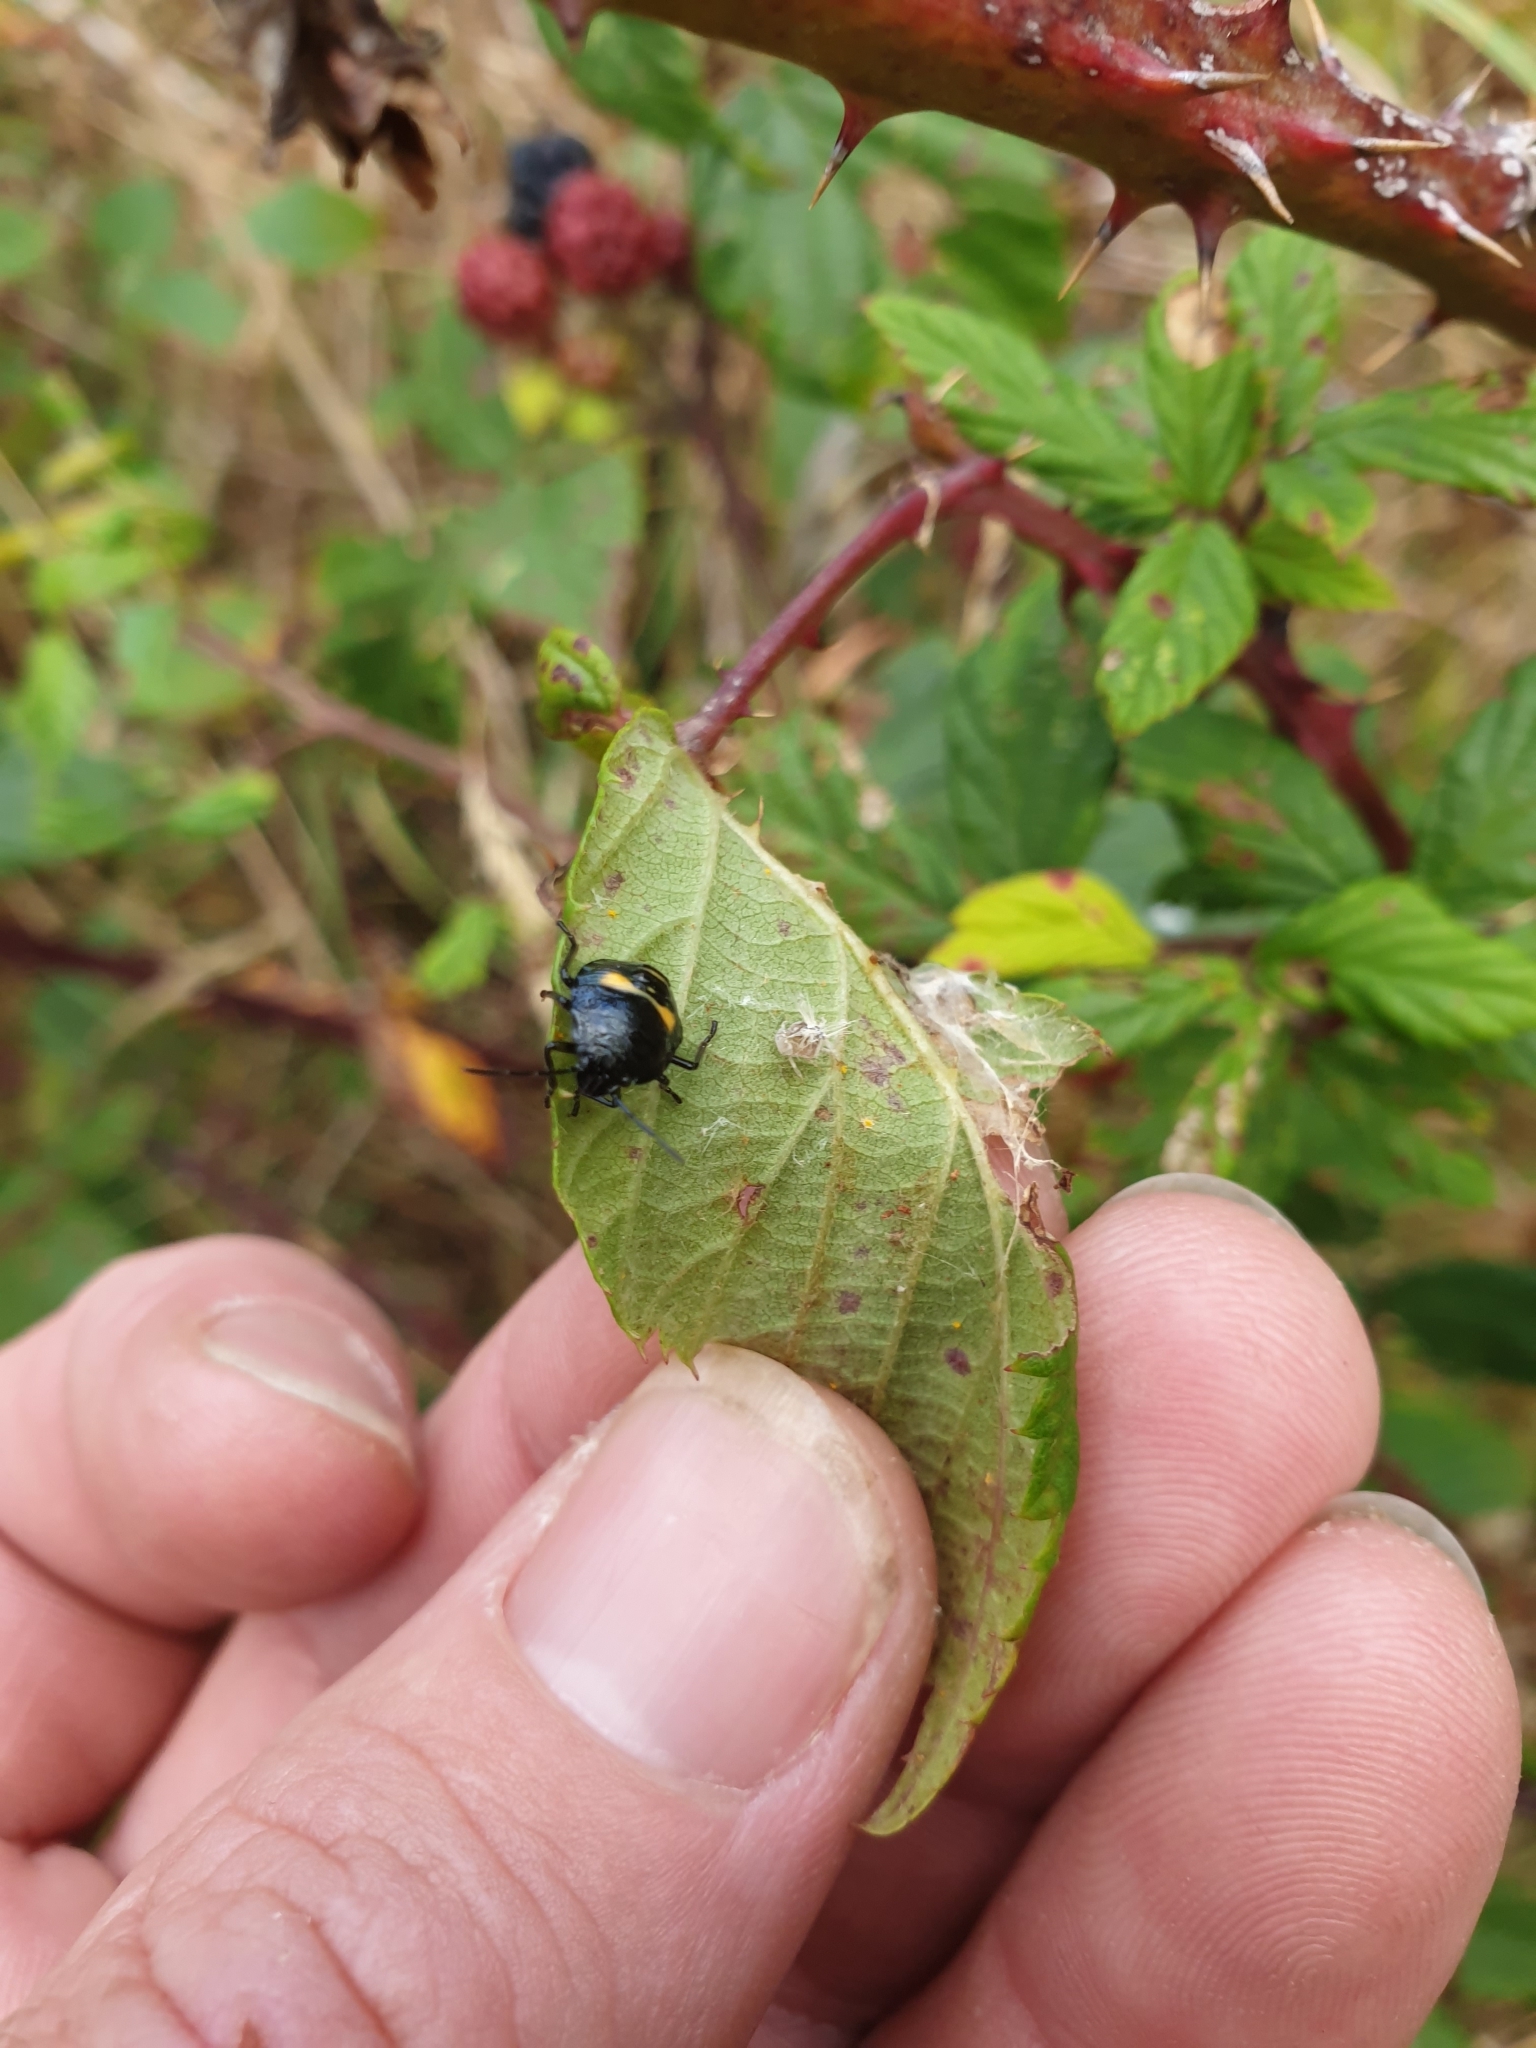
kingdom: Animalia
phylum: Arthropoda
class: Insecta
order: Hemiptera
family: Pentatomidae
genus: Glaucias
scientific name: Glaucias amyota
